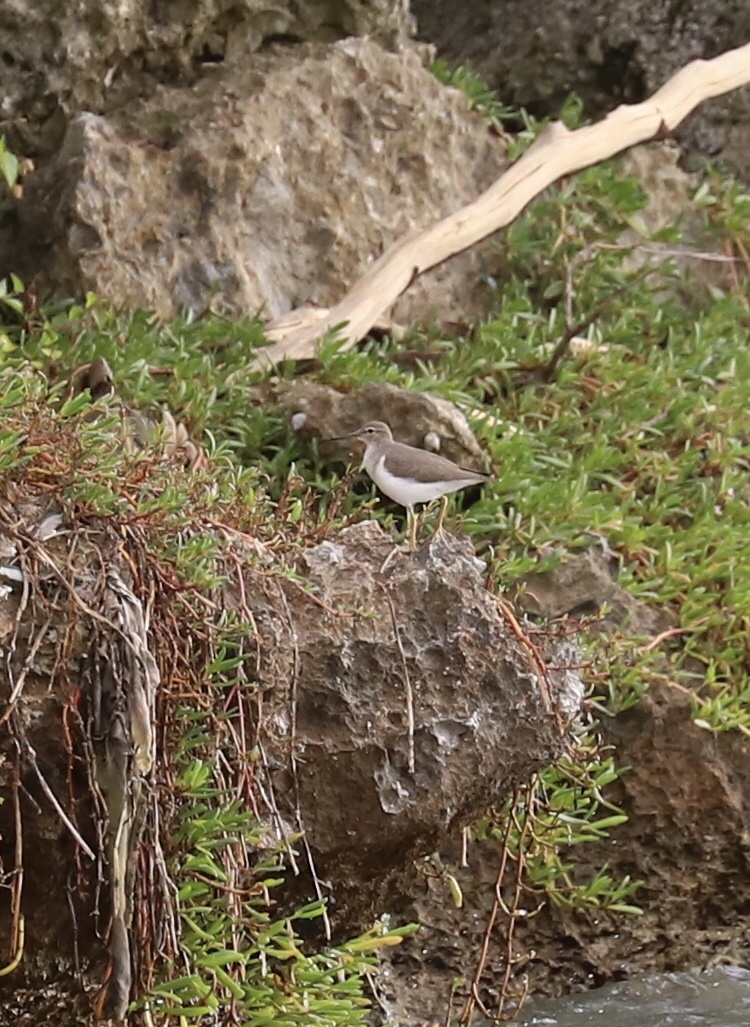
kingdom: Animalia
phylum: Chordata
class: Aves
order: Charadriiformes
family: Scolopacidae
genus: Actitis
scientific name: Actitis macularius
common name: Spotted sandpiper
